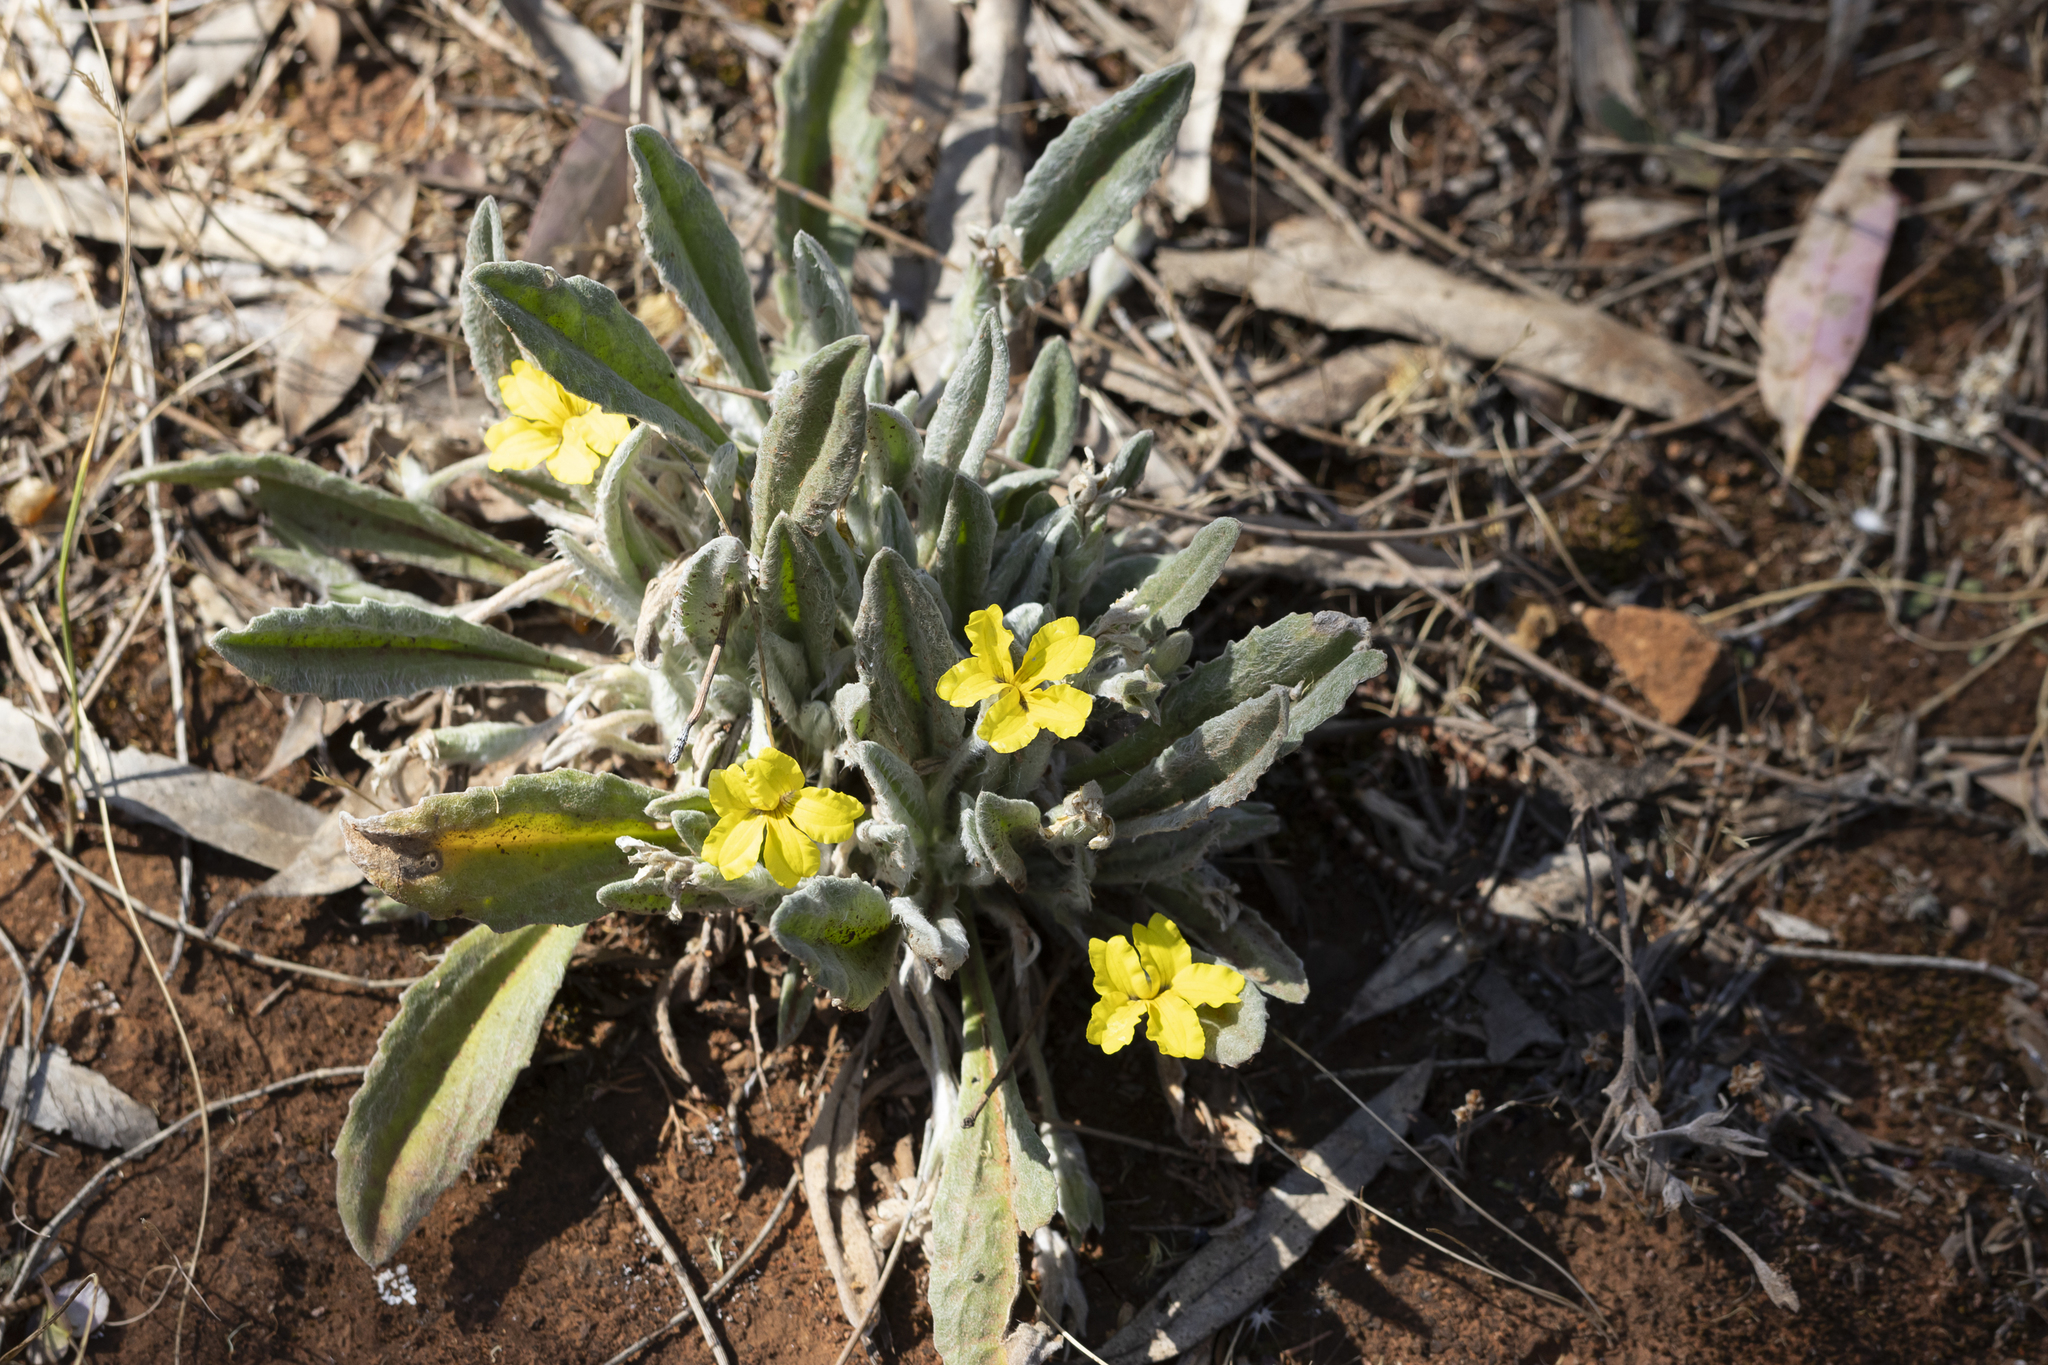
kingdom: Plantae
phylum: Tracheophyta
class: Magnoliopsida
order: Asterales
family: Goodeniaceae
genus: Goodenia
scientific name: Goodenia robusta
